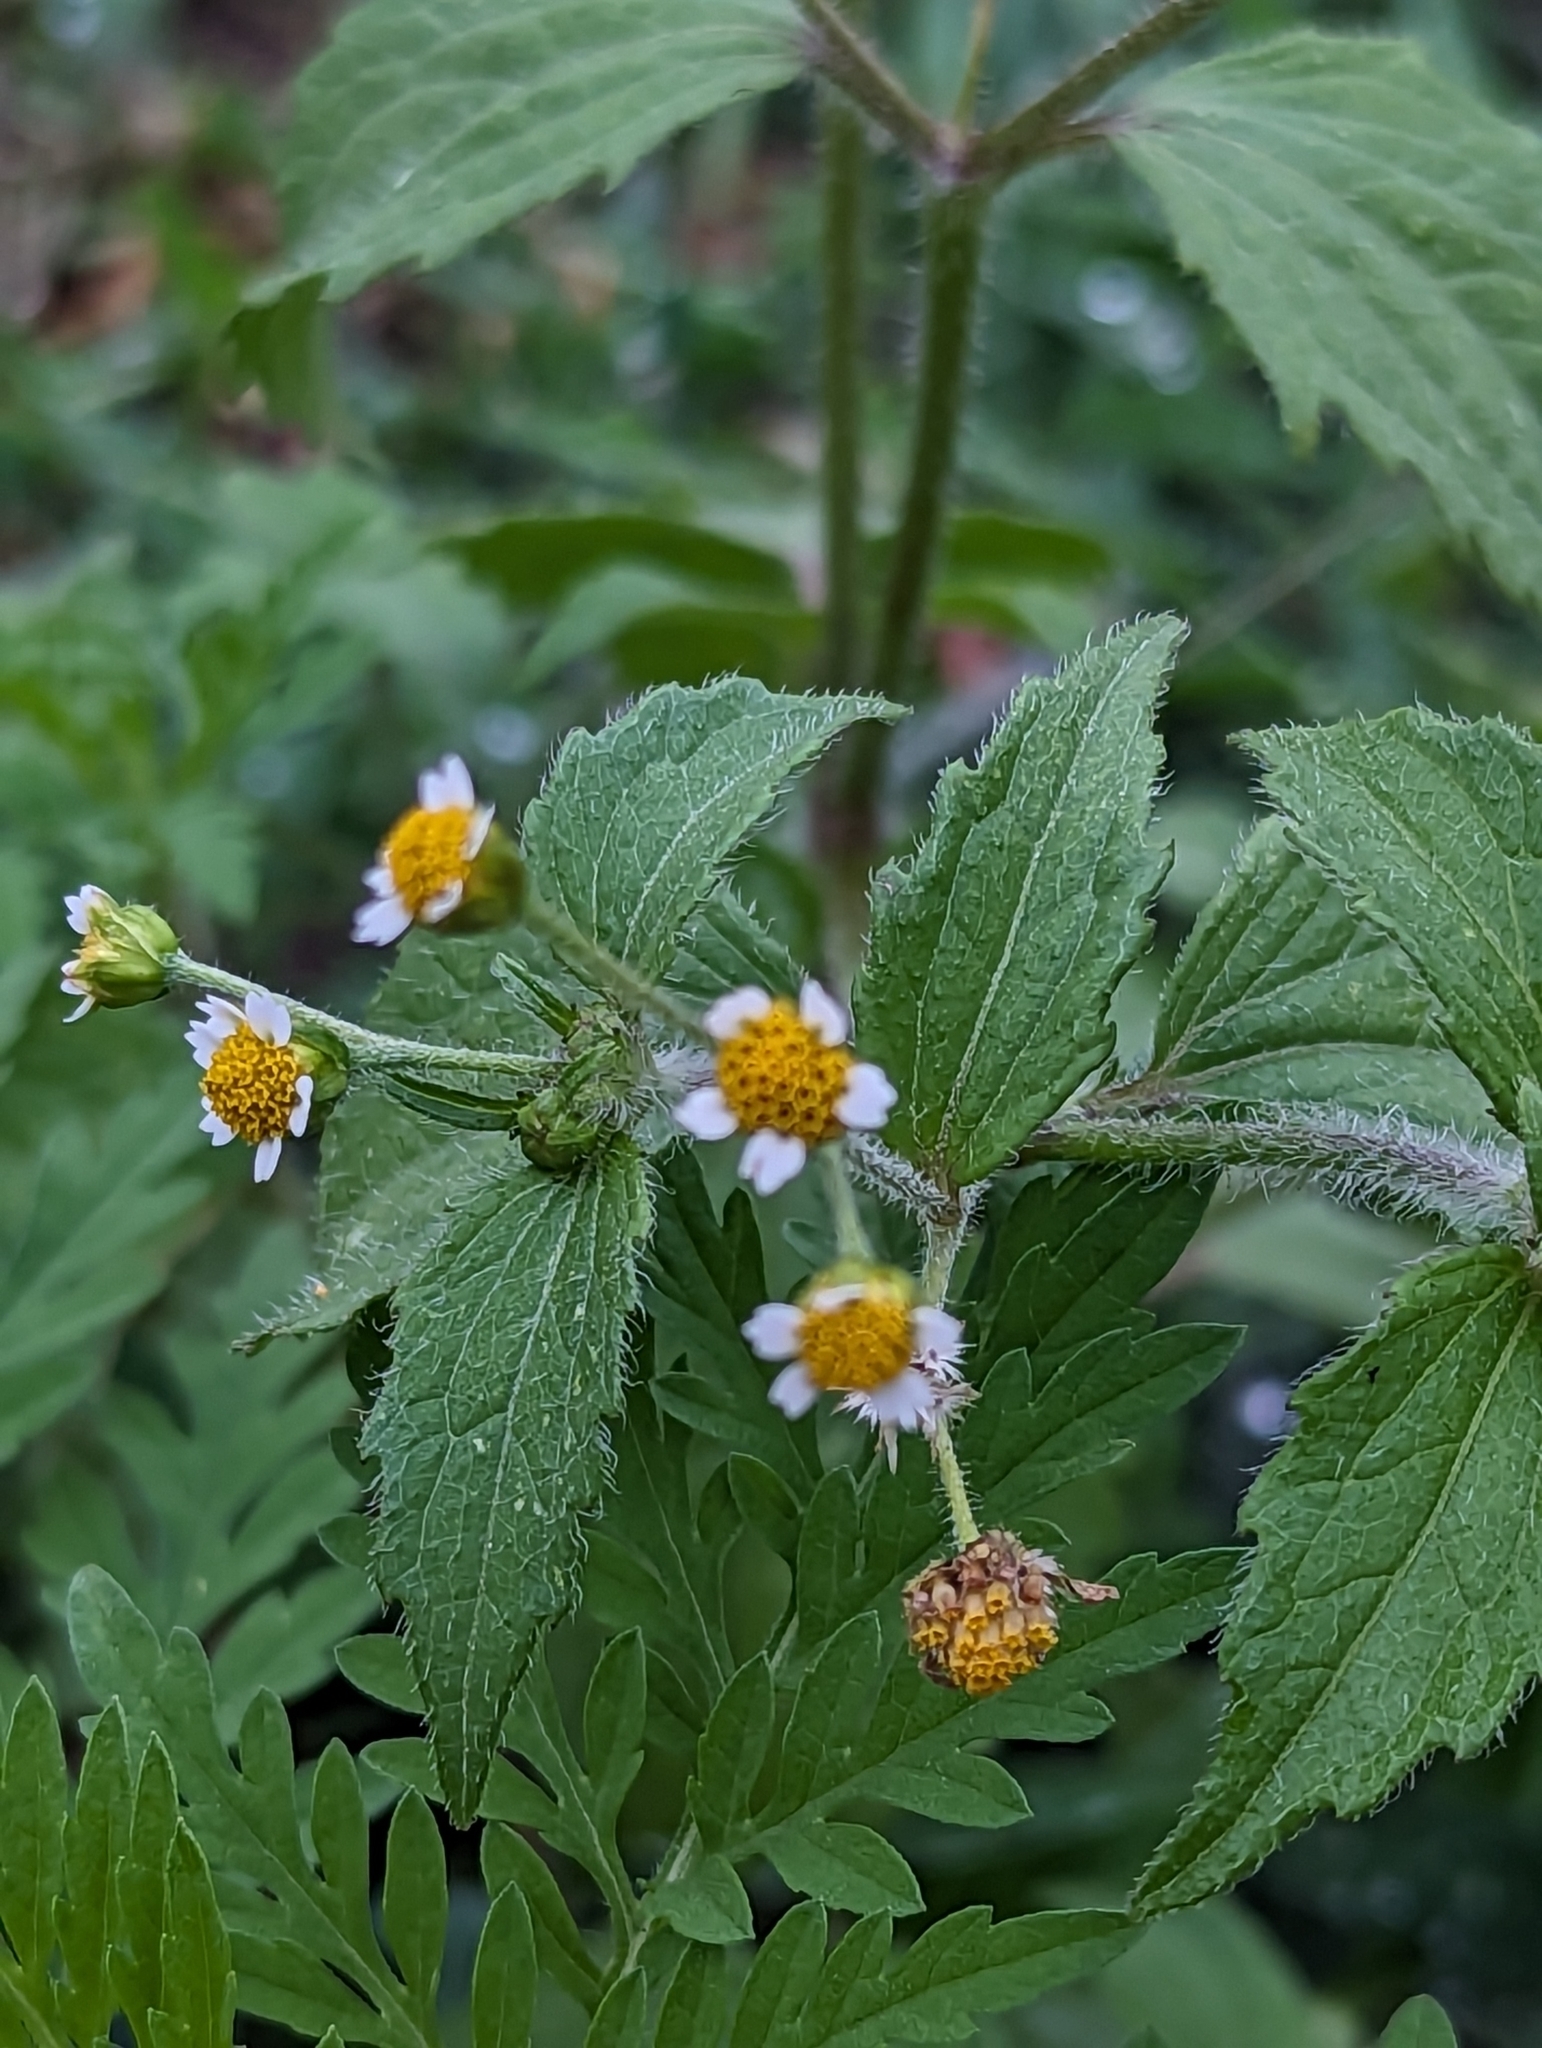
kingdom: Plantae
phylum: Tracheophyta
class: Magnoliopsida
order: Asterales
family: Asteraceae
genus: Galinsoga
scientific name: Galinsoga quadriradiata
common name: Shaggy soldier
